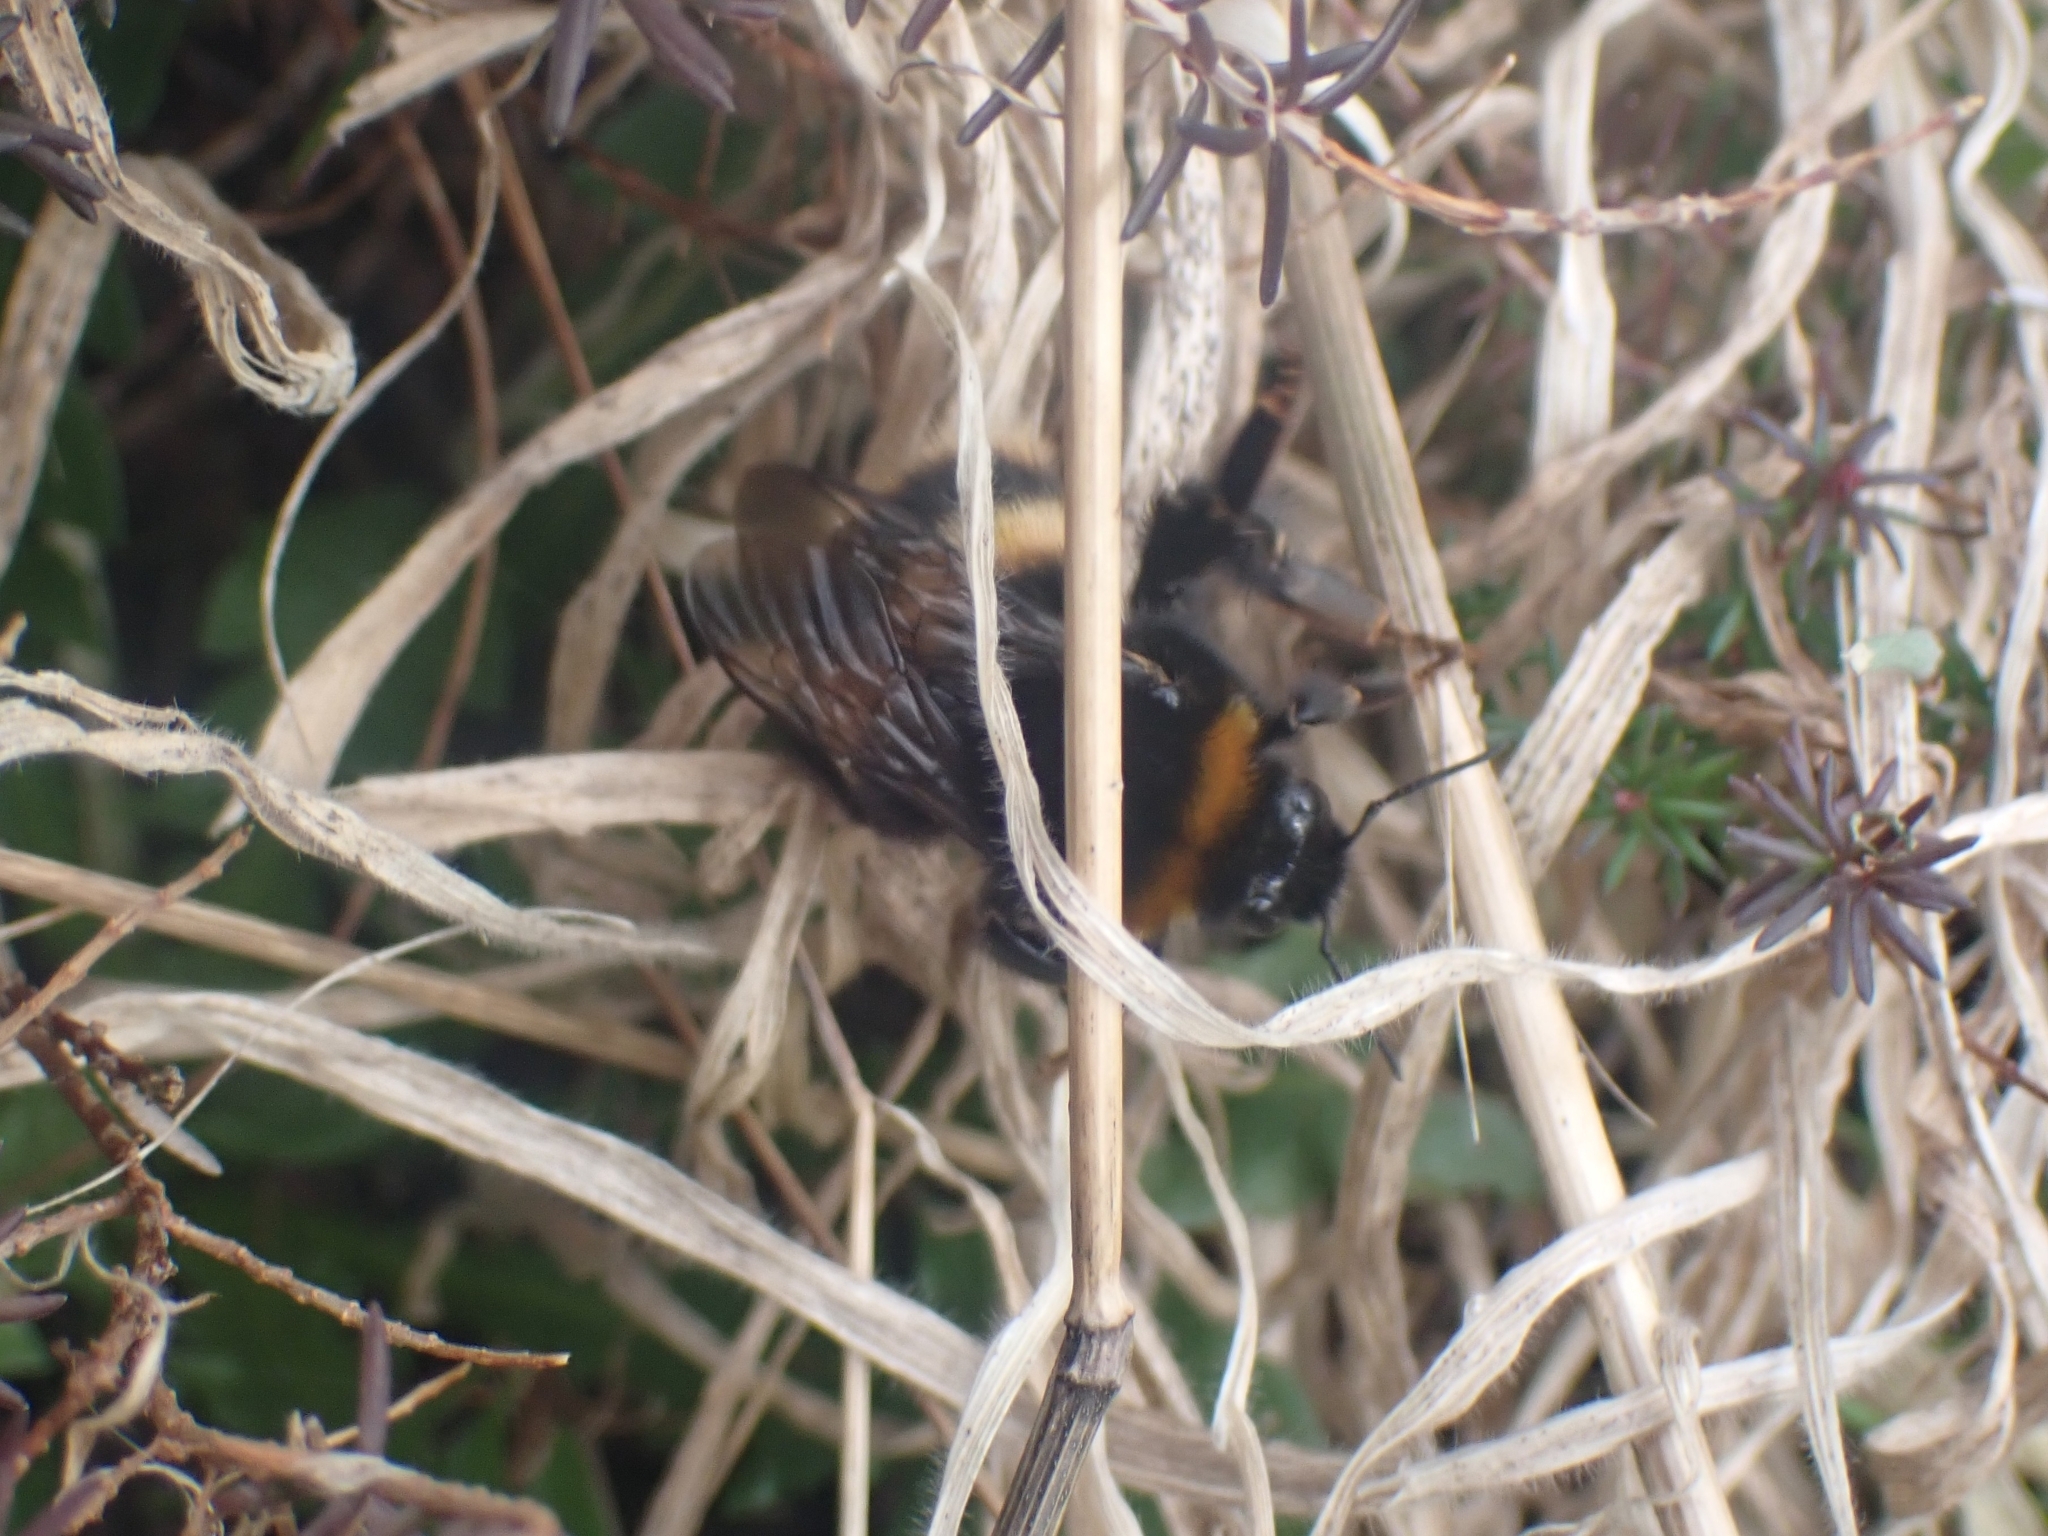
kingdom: Animalia
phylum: Arthropoda
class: Insecta
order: Hymenoptera
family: Apidae
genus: Bombus
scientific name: Bombus terrestris
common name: Buff-tailed bumblebee
